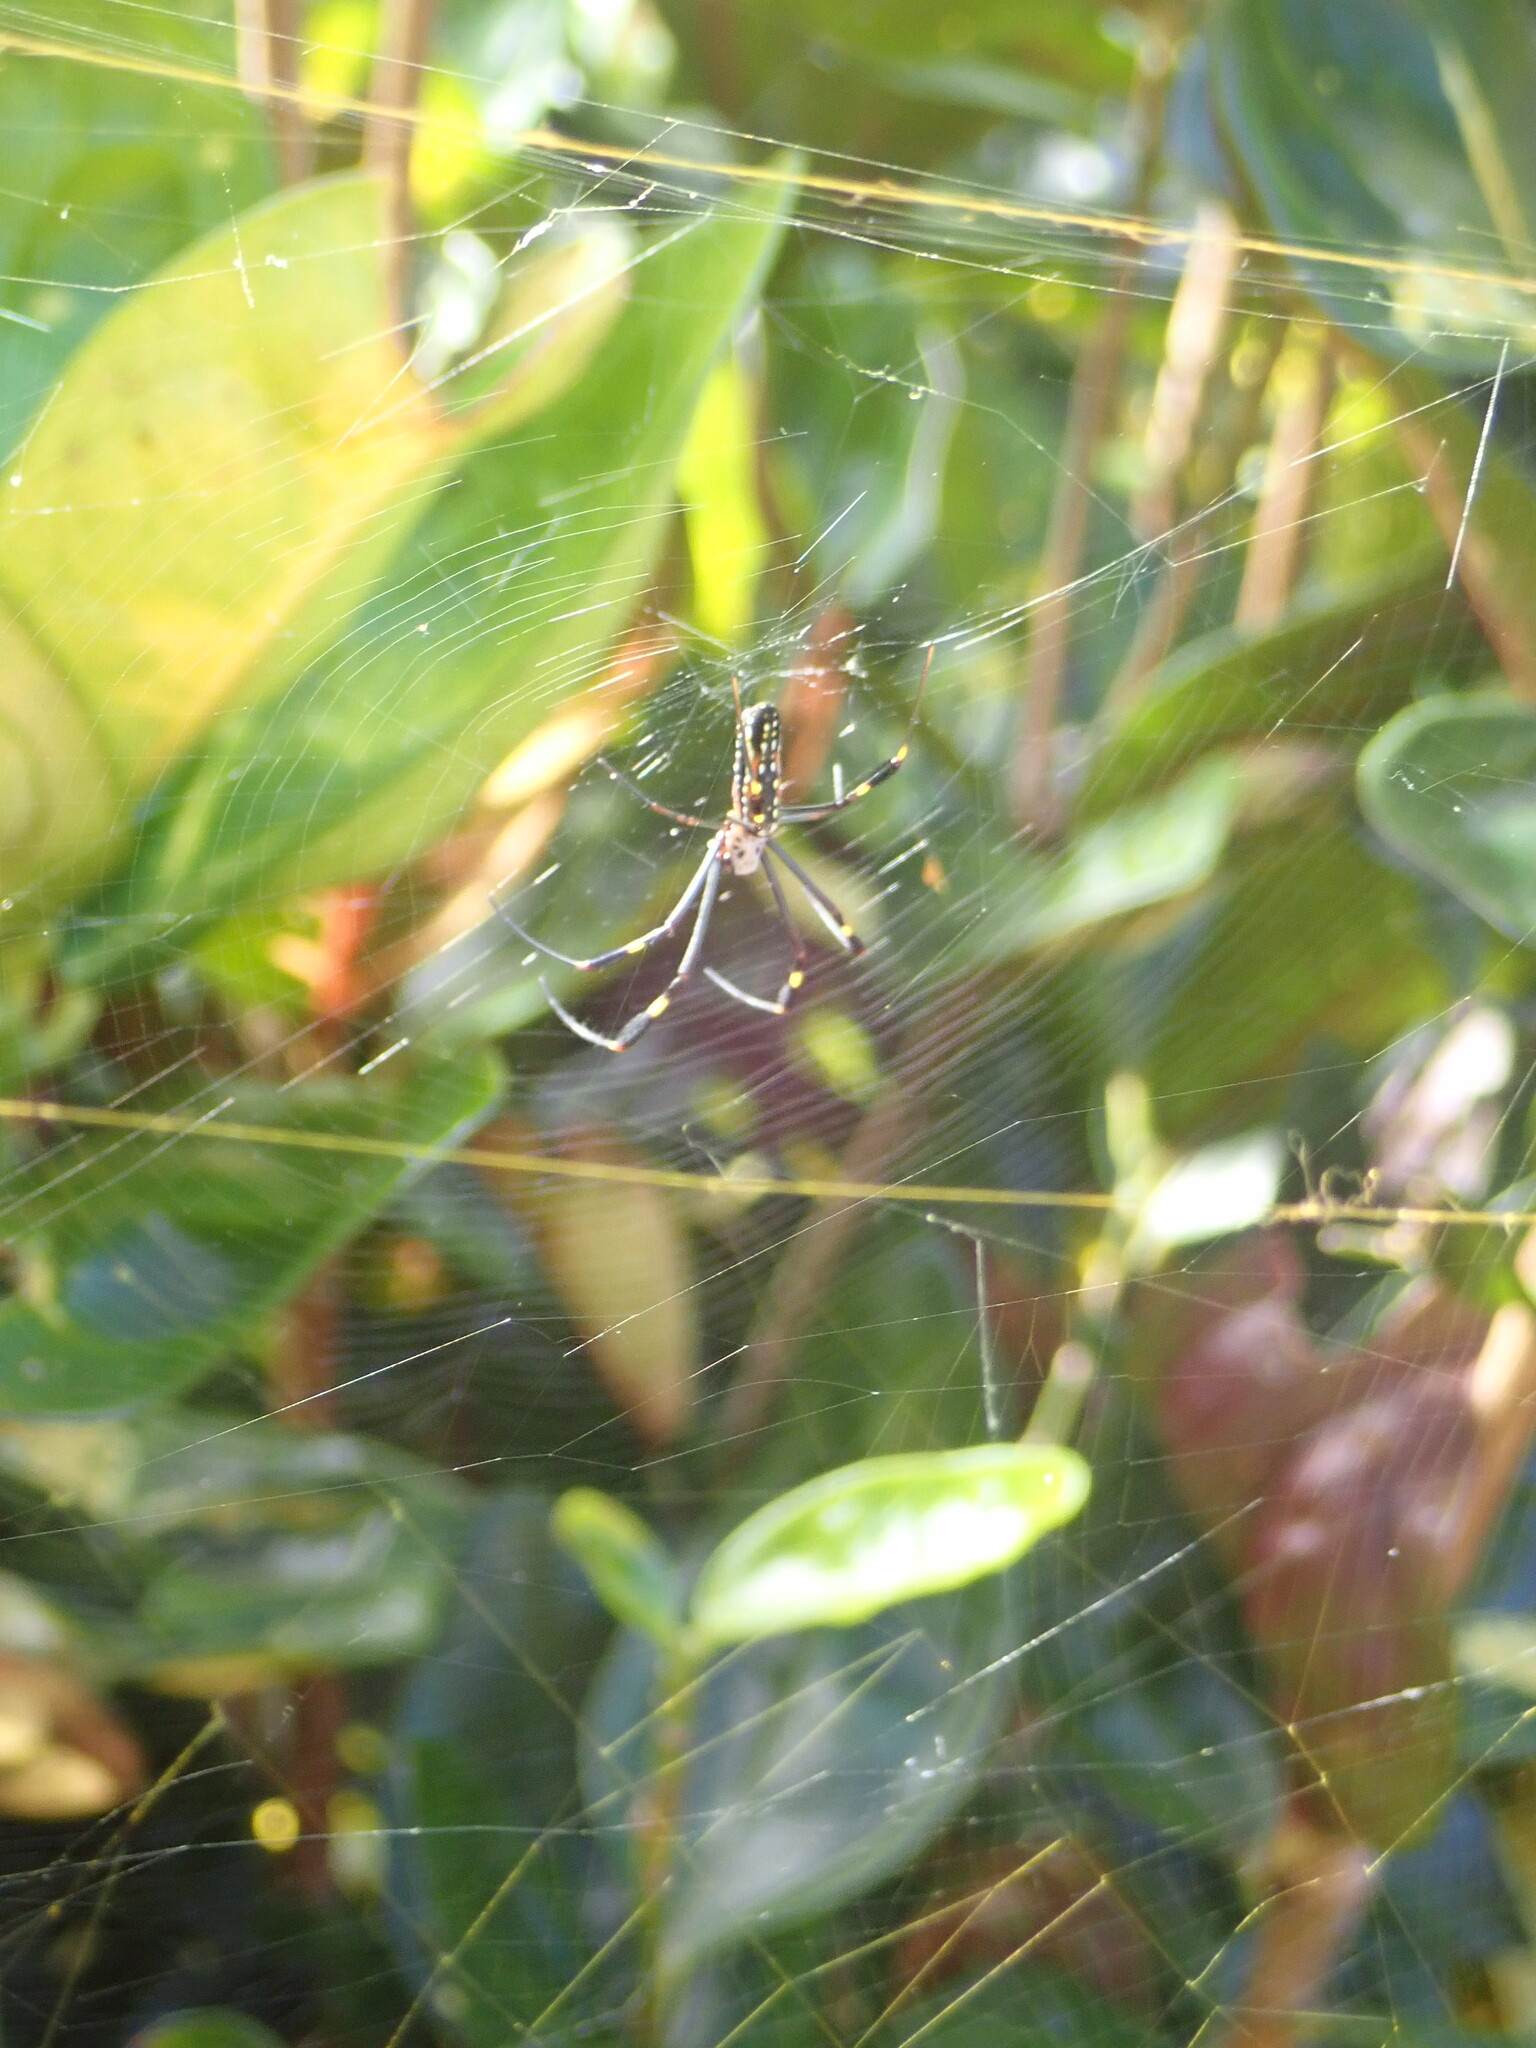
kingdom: Animalia
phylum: Arthropoda
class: Arachnida
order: Araneae
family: Araneidae
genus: Trichonephila
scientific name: Trichonephila clavipes
